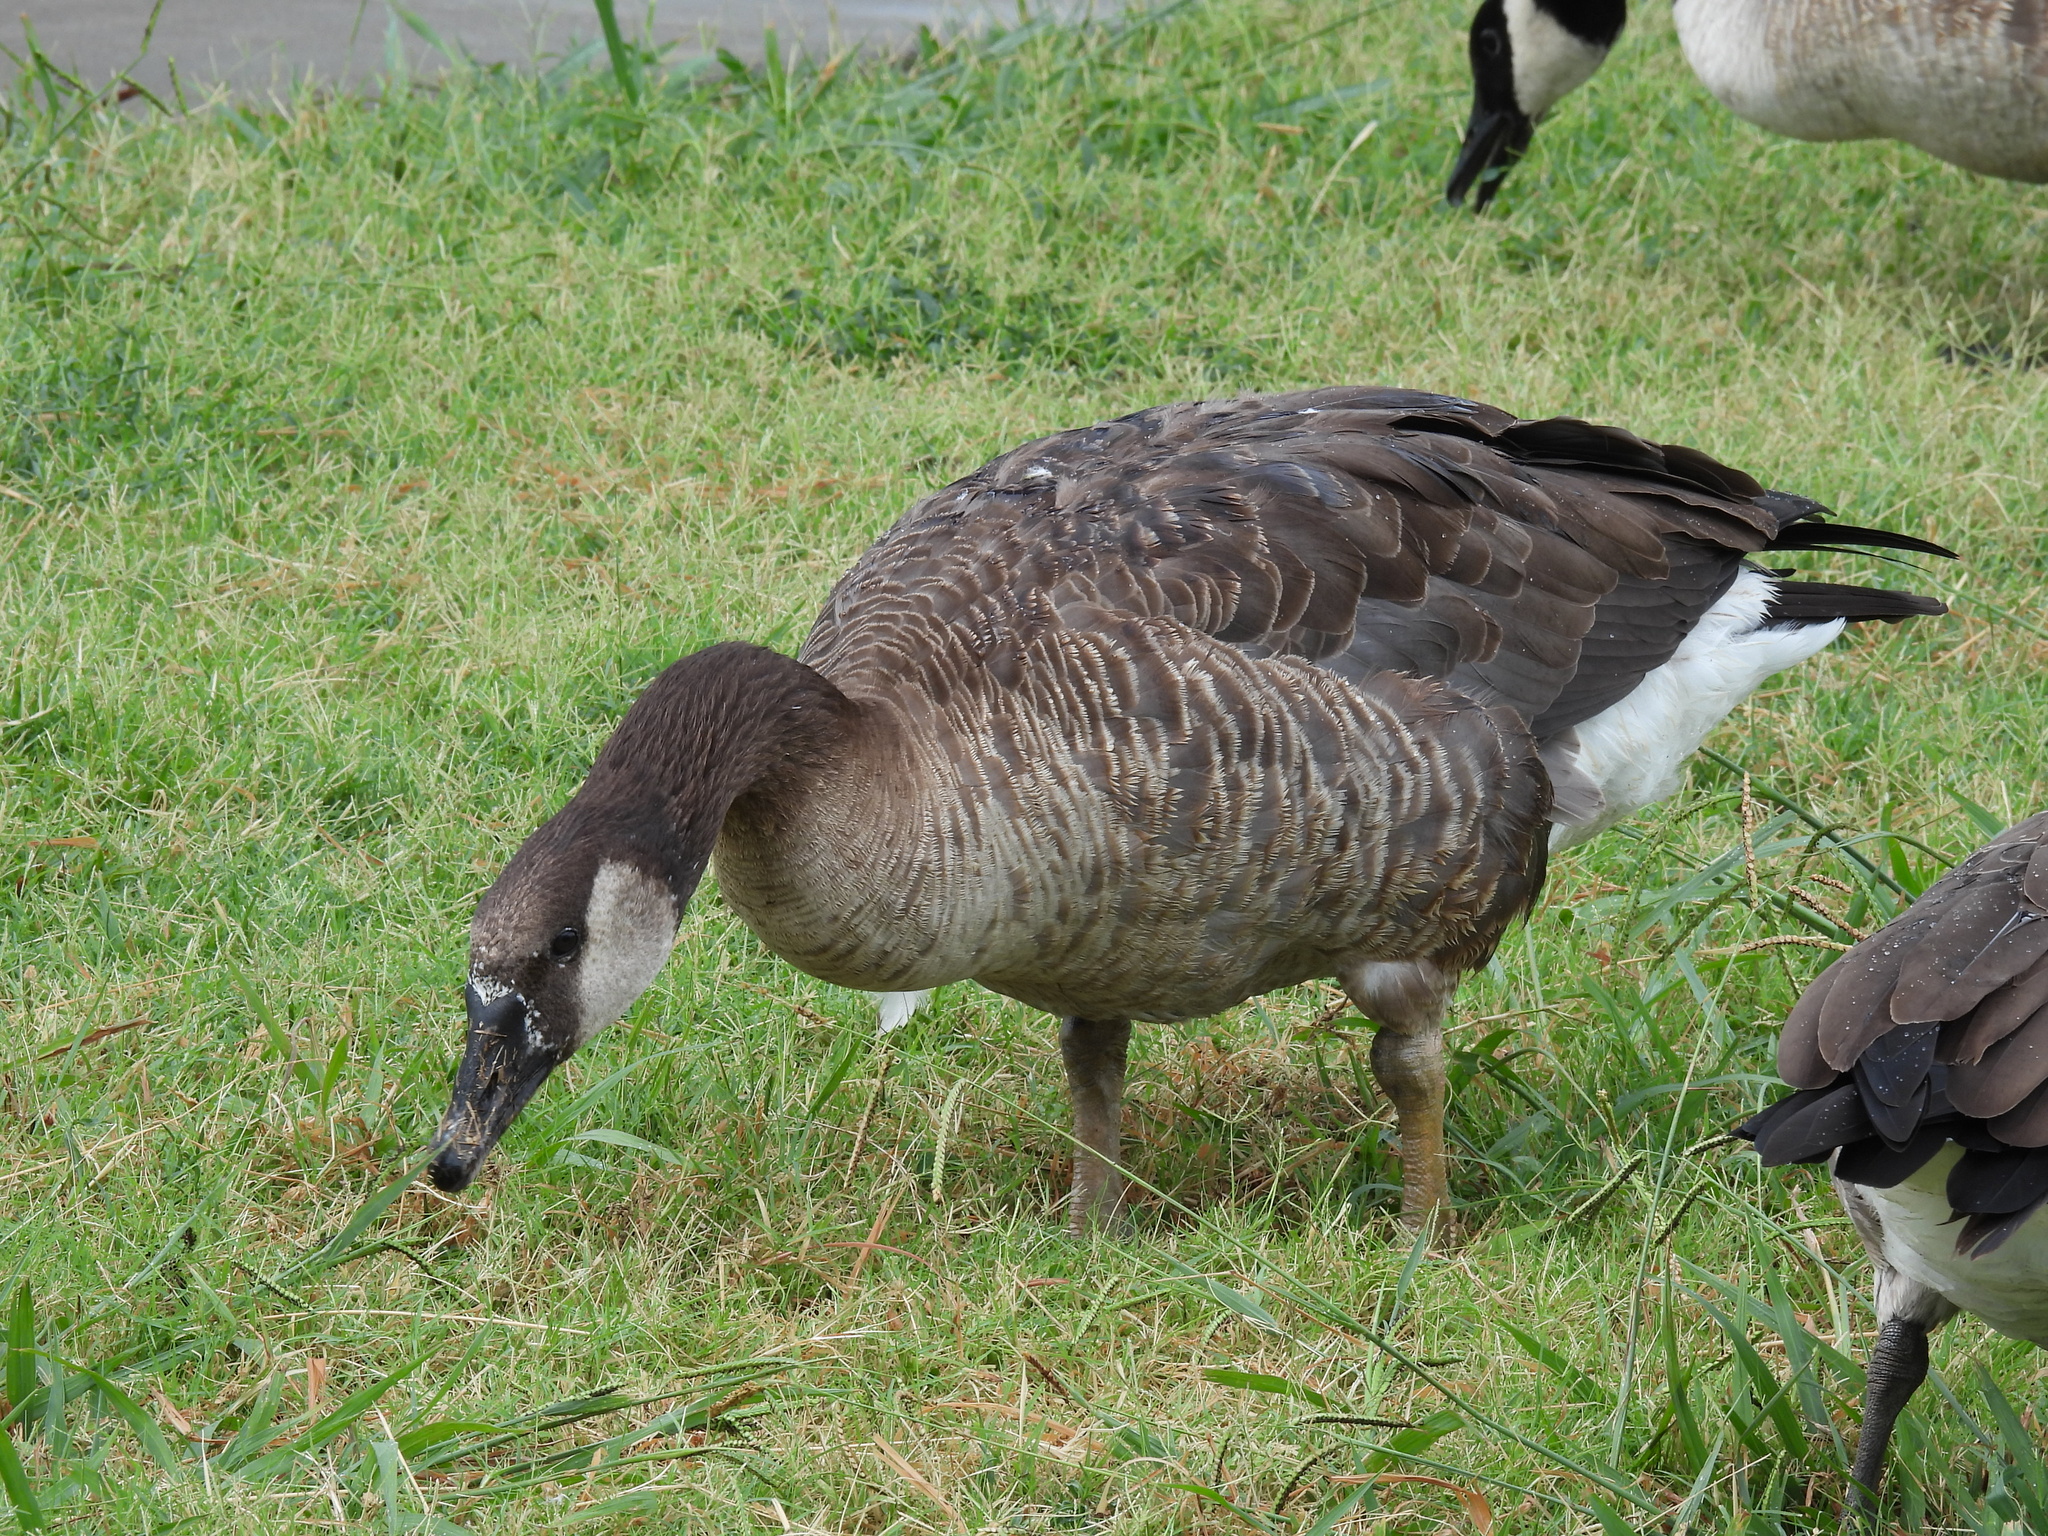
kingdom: Animalia
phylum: Chordata
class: Aves
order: Anseriformes
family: Anatidae
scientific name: Anatidae
